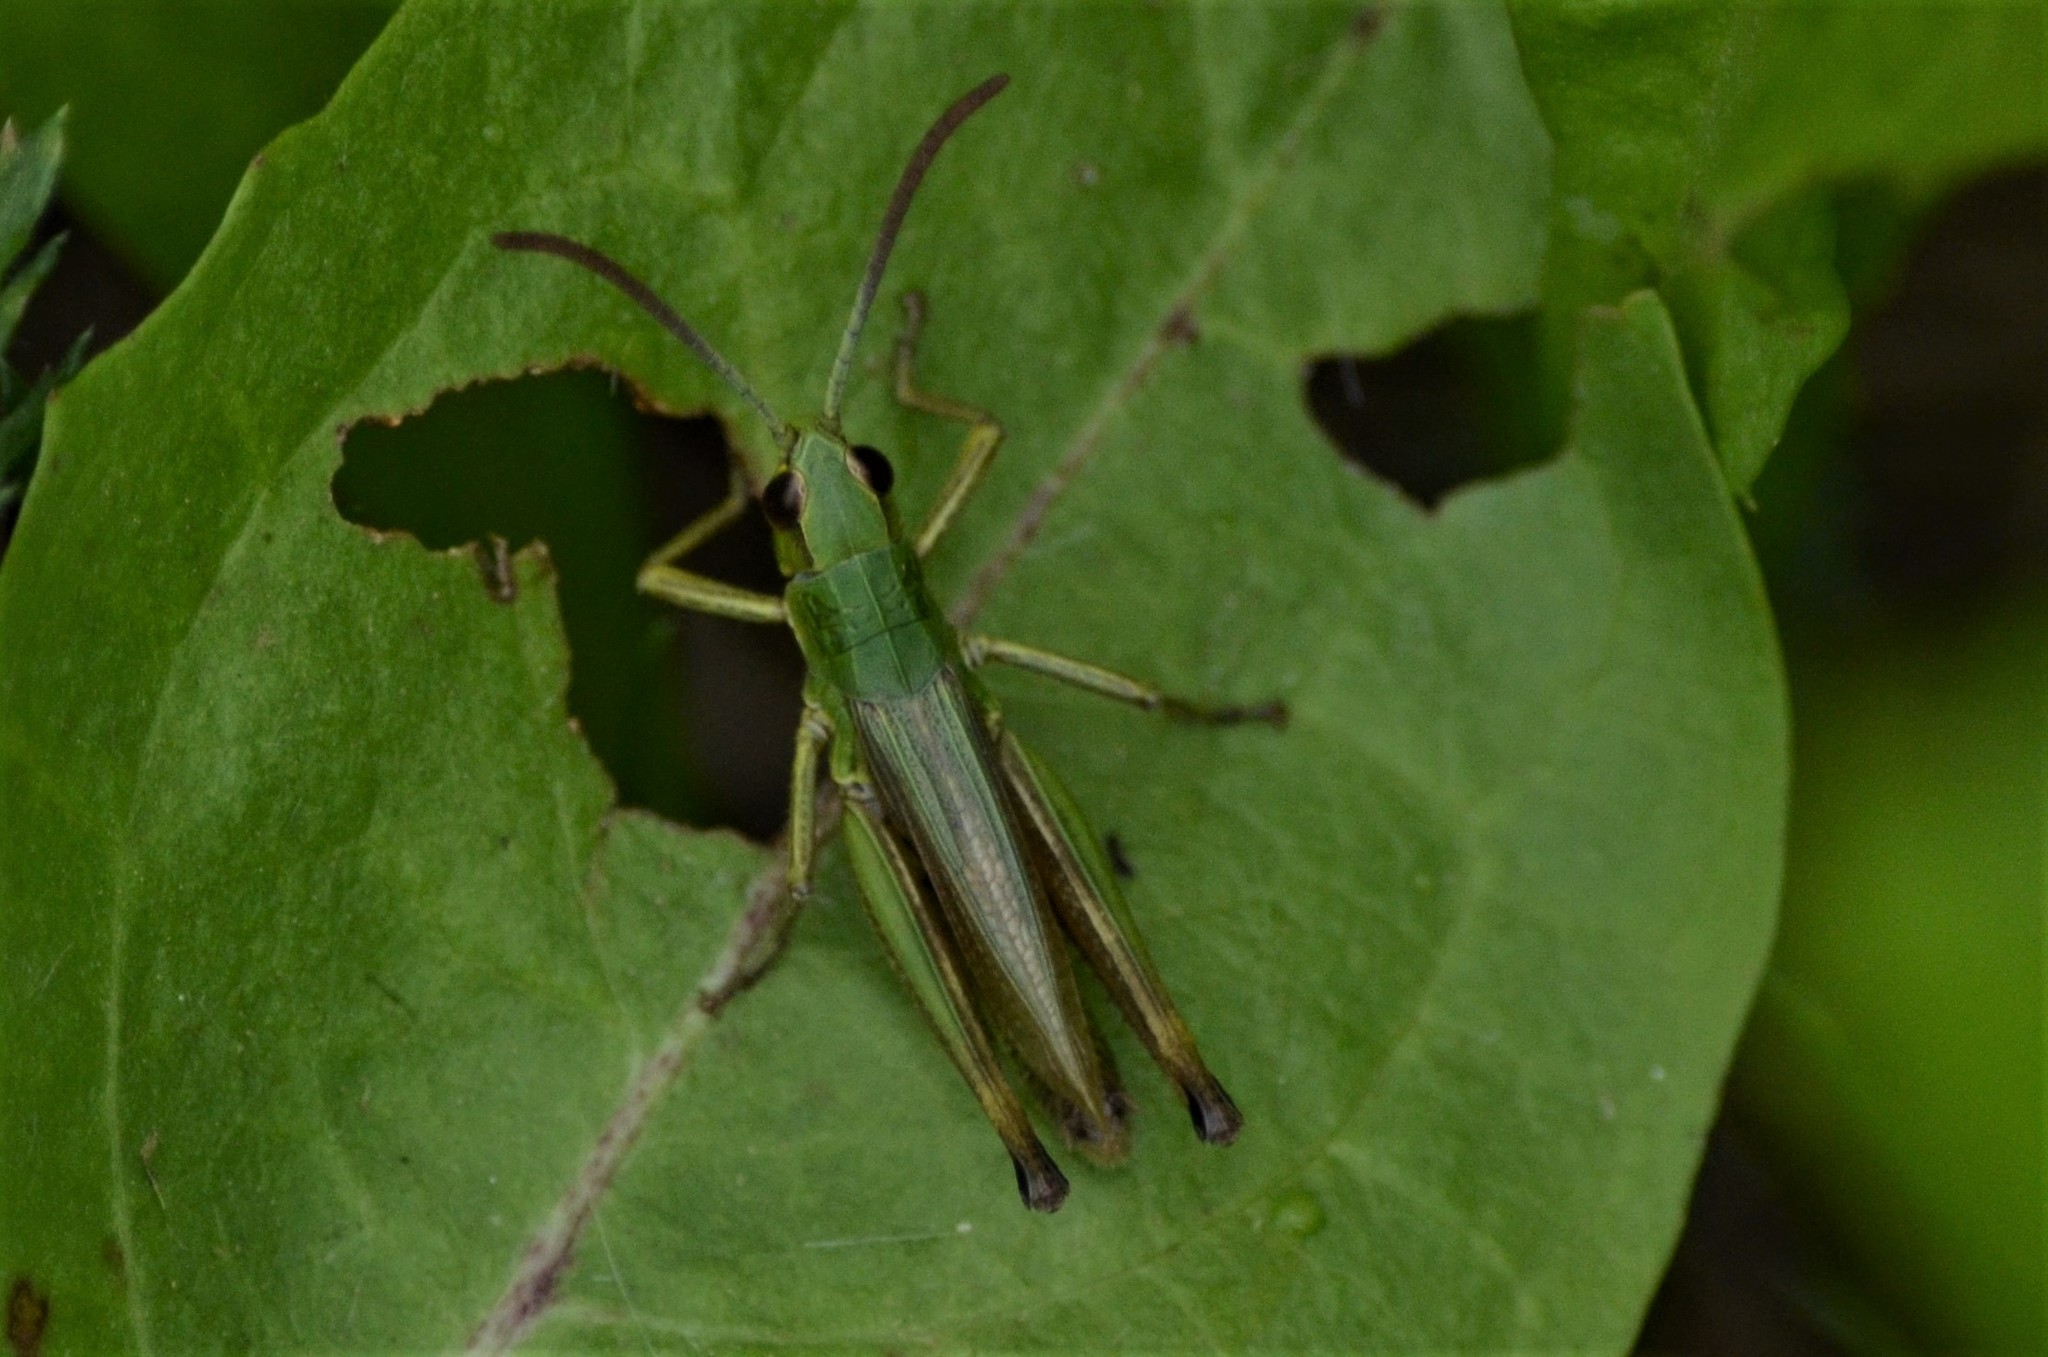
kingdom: Animalia
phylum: Arthropoda
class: Insecta
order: Orthoptera
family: Acrididae
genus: Pseudochorthippus
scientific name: Pseudochorthippus parallelus
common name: Meadow grasshopper
